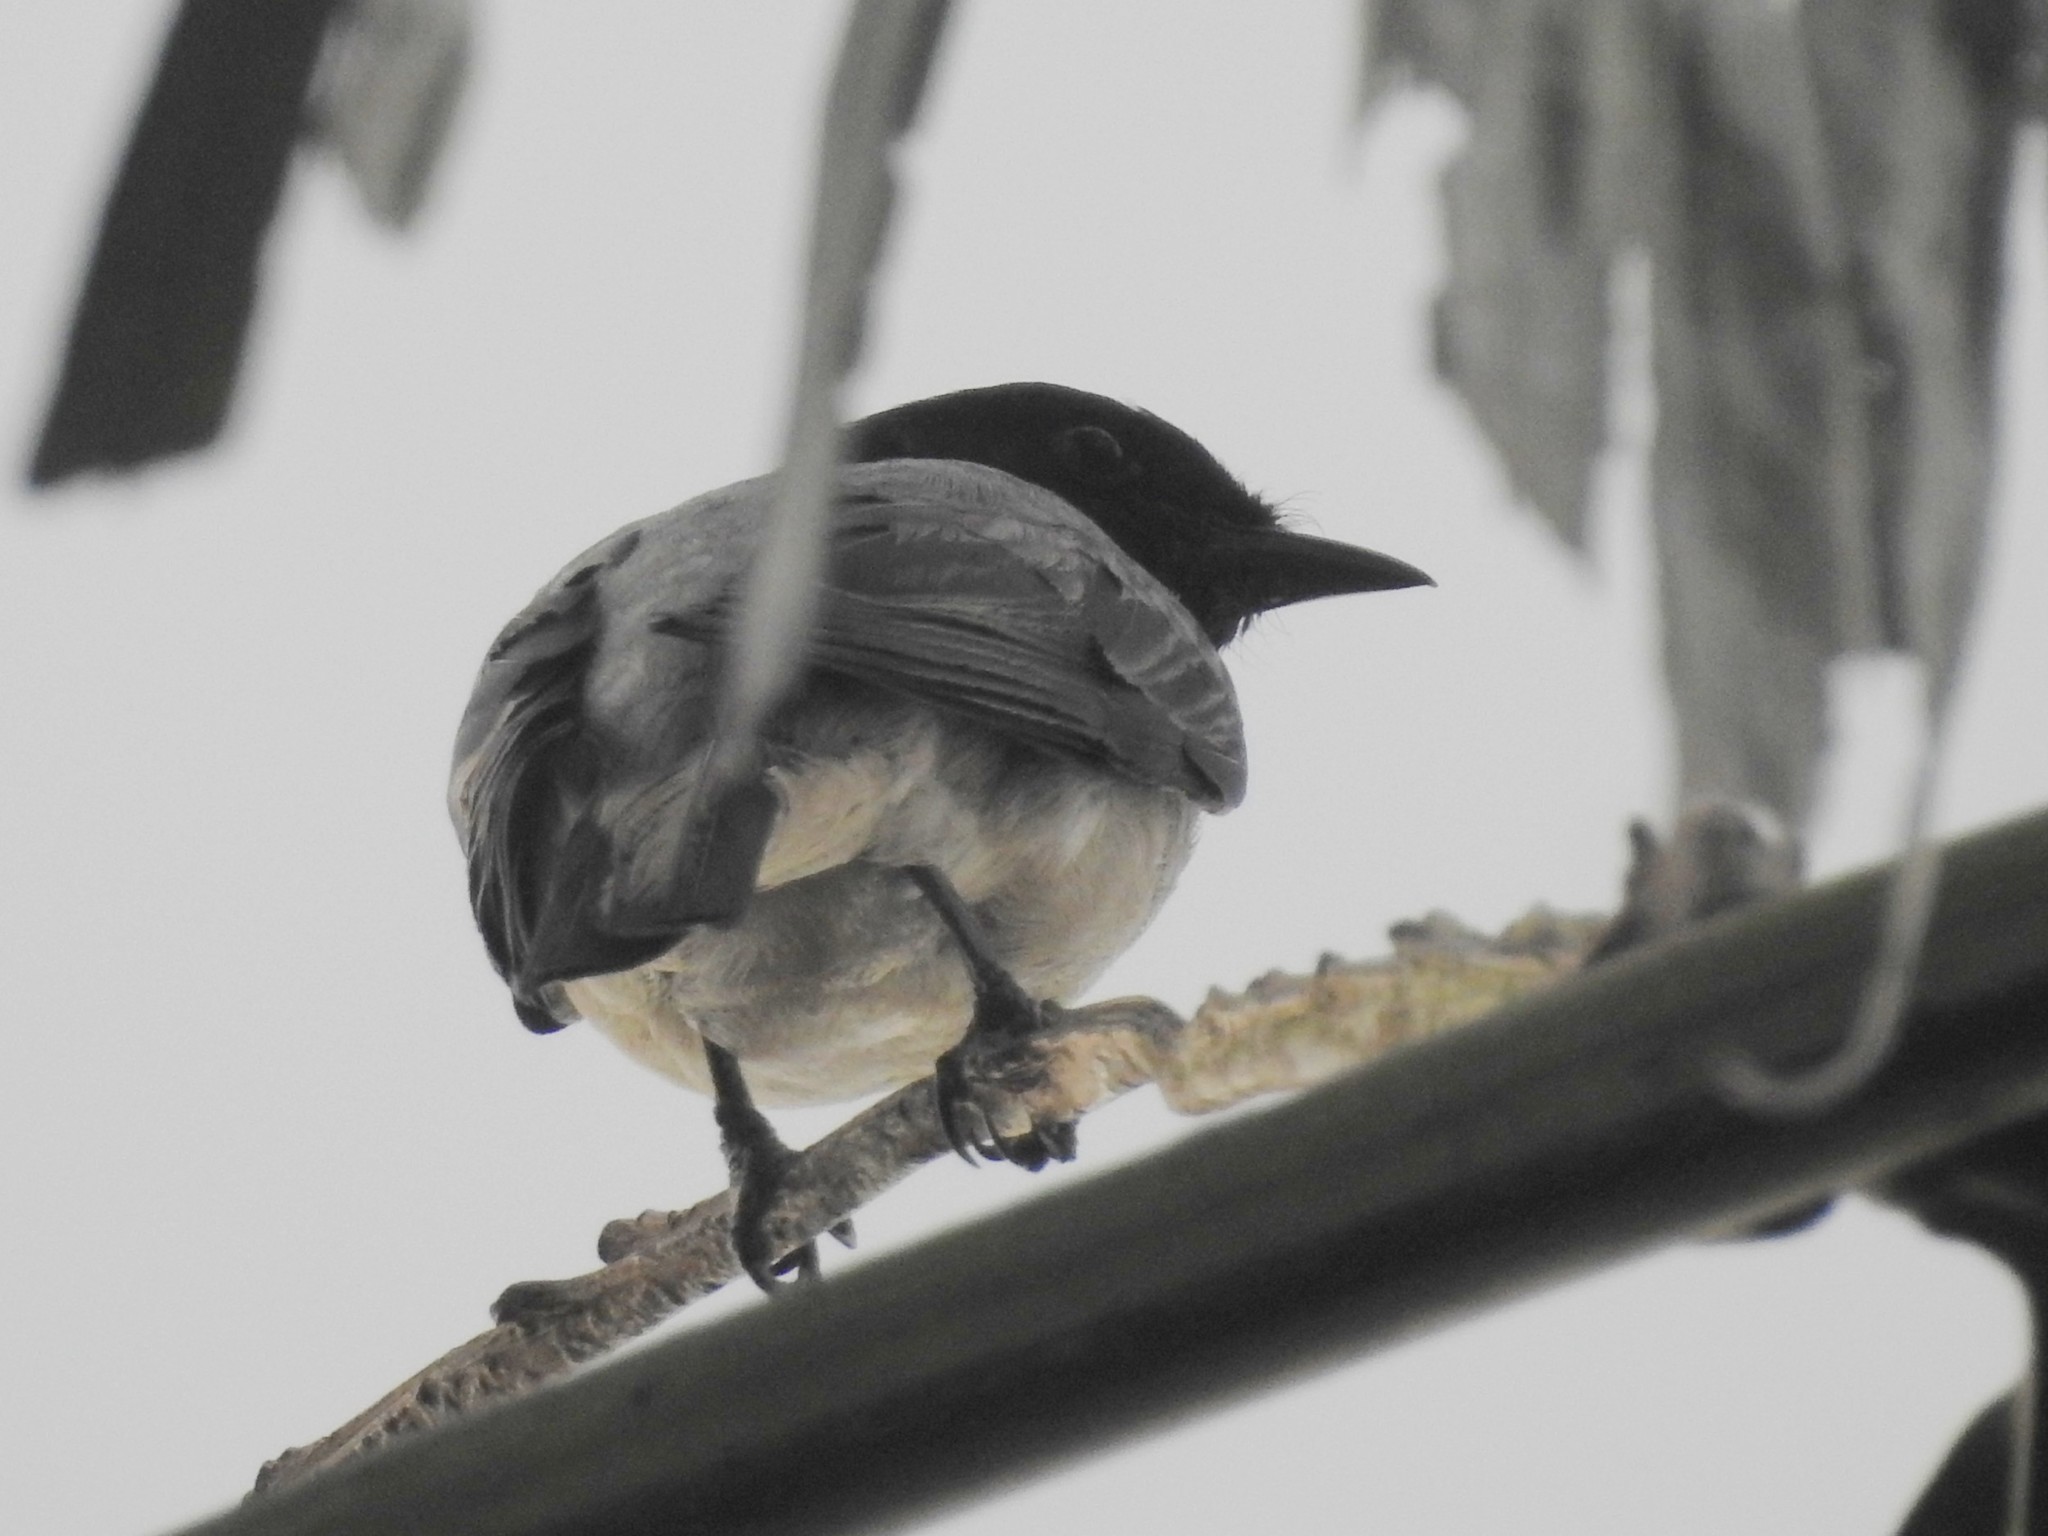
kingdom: Animalia
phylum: Chordata
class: Aves
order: Passeriformes
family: Campephagidae
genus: Coracina
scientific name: Coracina melanoptera
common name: Black-headed cuckooshrike
